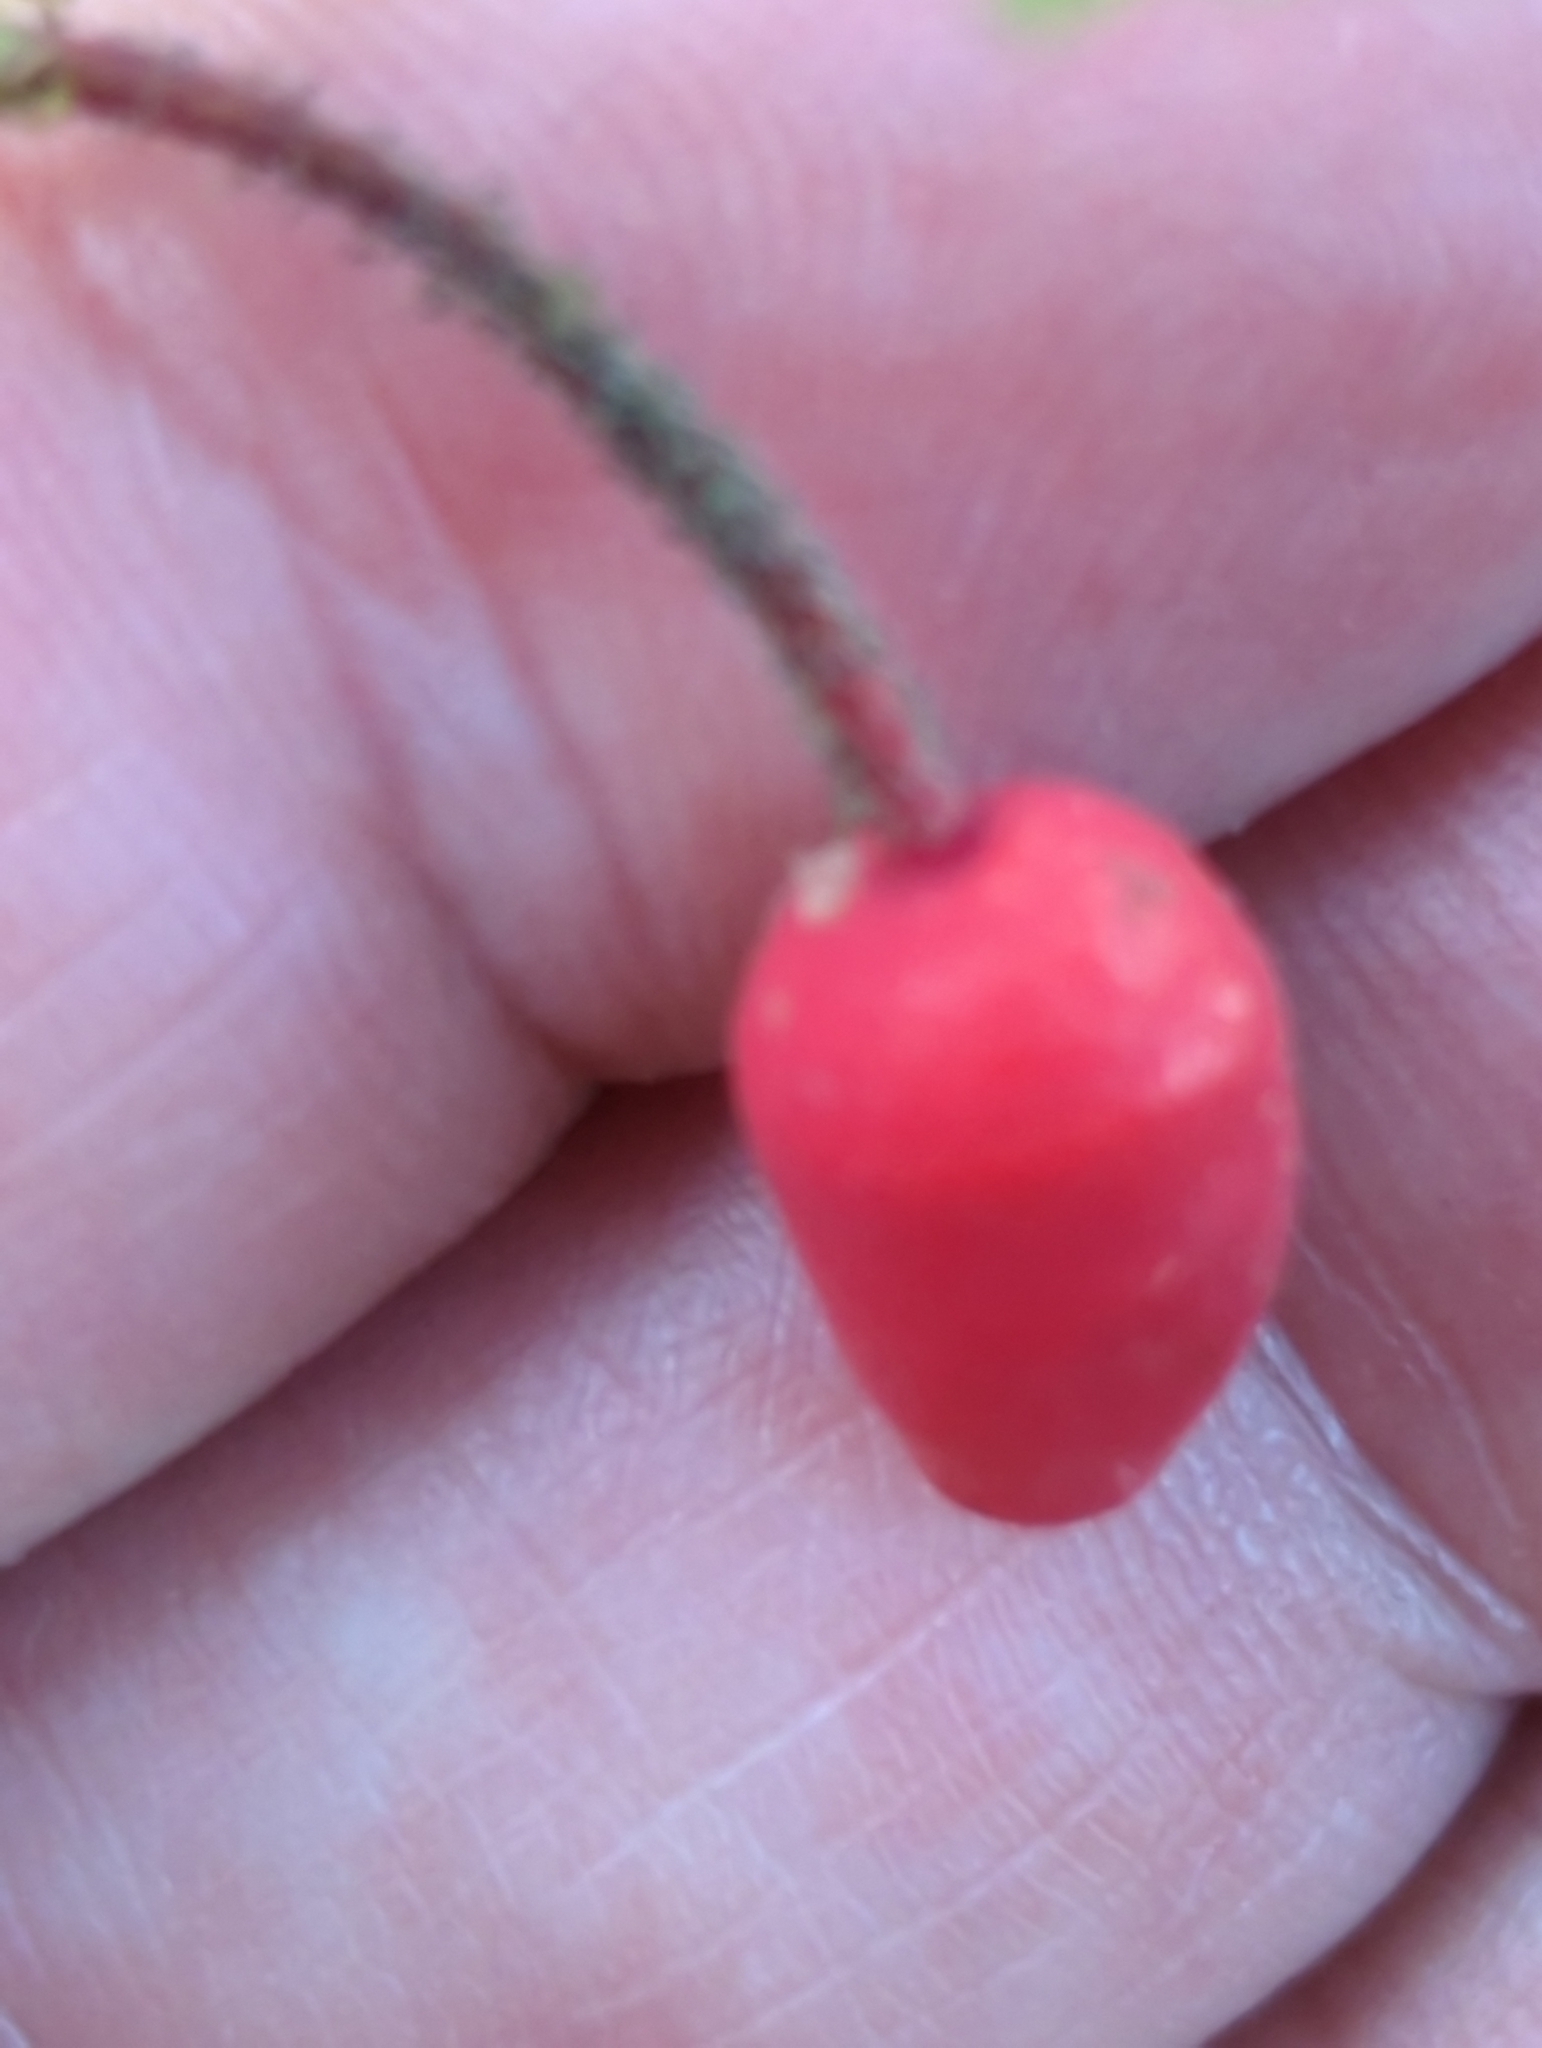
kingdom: Plantae
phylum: Tracheophyta
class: Magnoliopsida
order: Rosales
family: Rosaceae
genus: Rosa
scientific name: Rosa gymnocarpa
